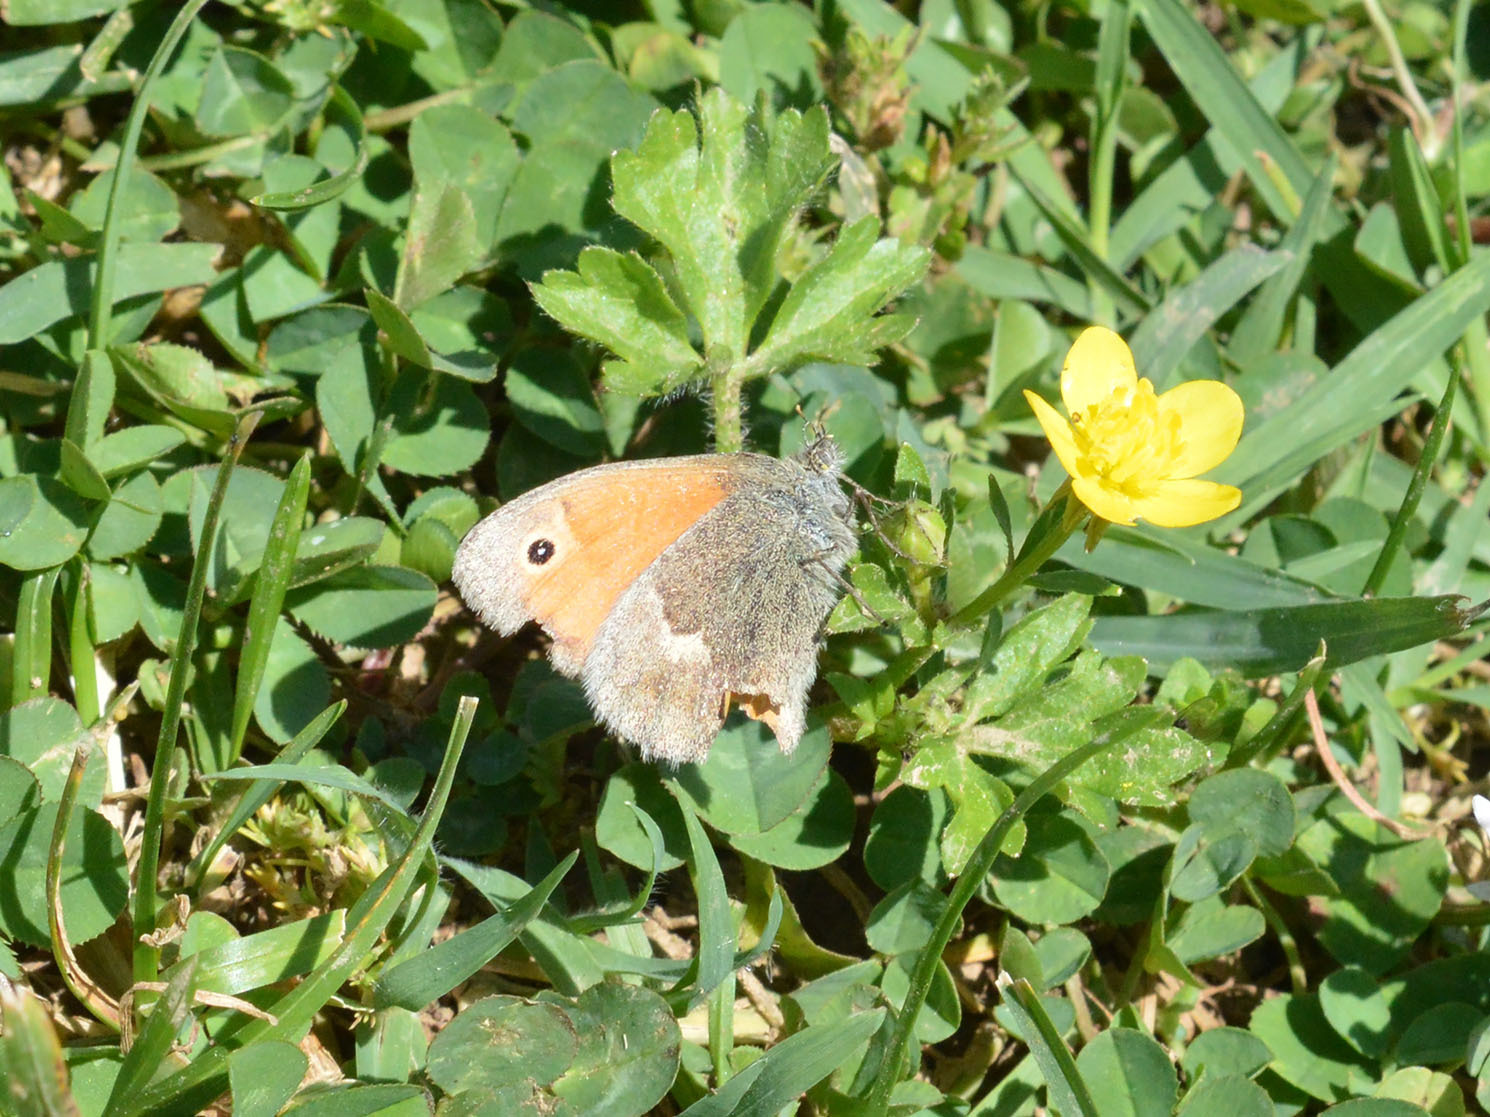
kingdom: Animalia
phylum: Arthropoda
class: Insecta
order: Lepidoptera
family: Nymphalidae
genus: Coenonympha
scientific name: Coenonympha pamphilus
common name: Small heath
